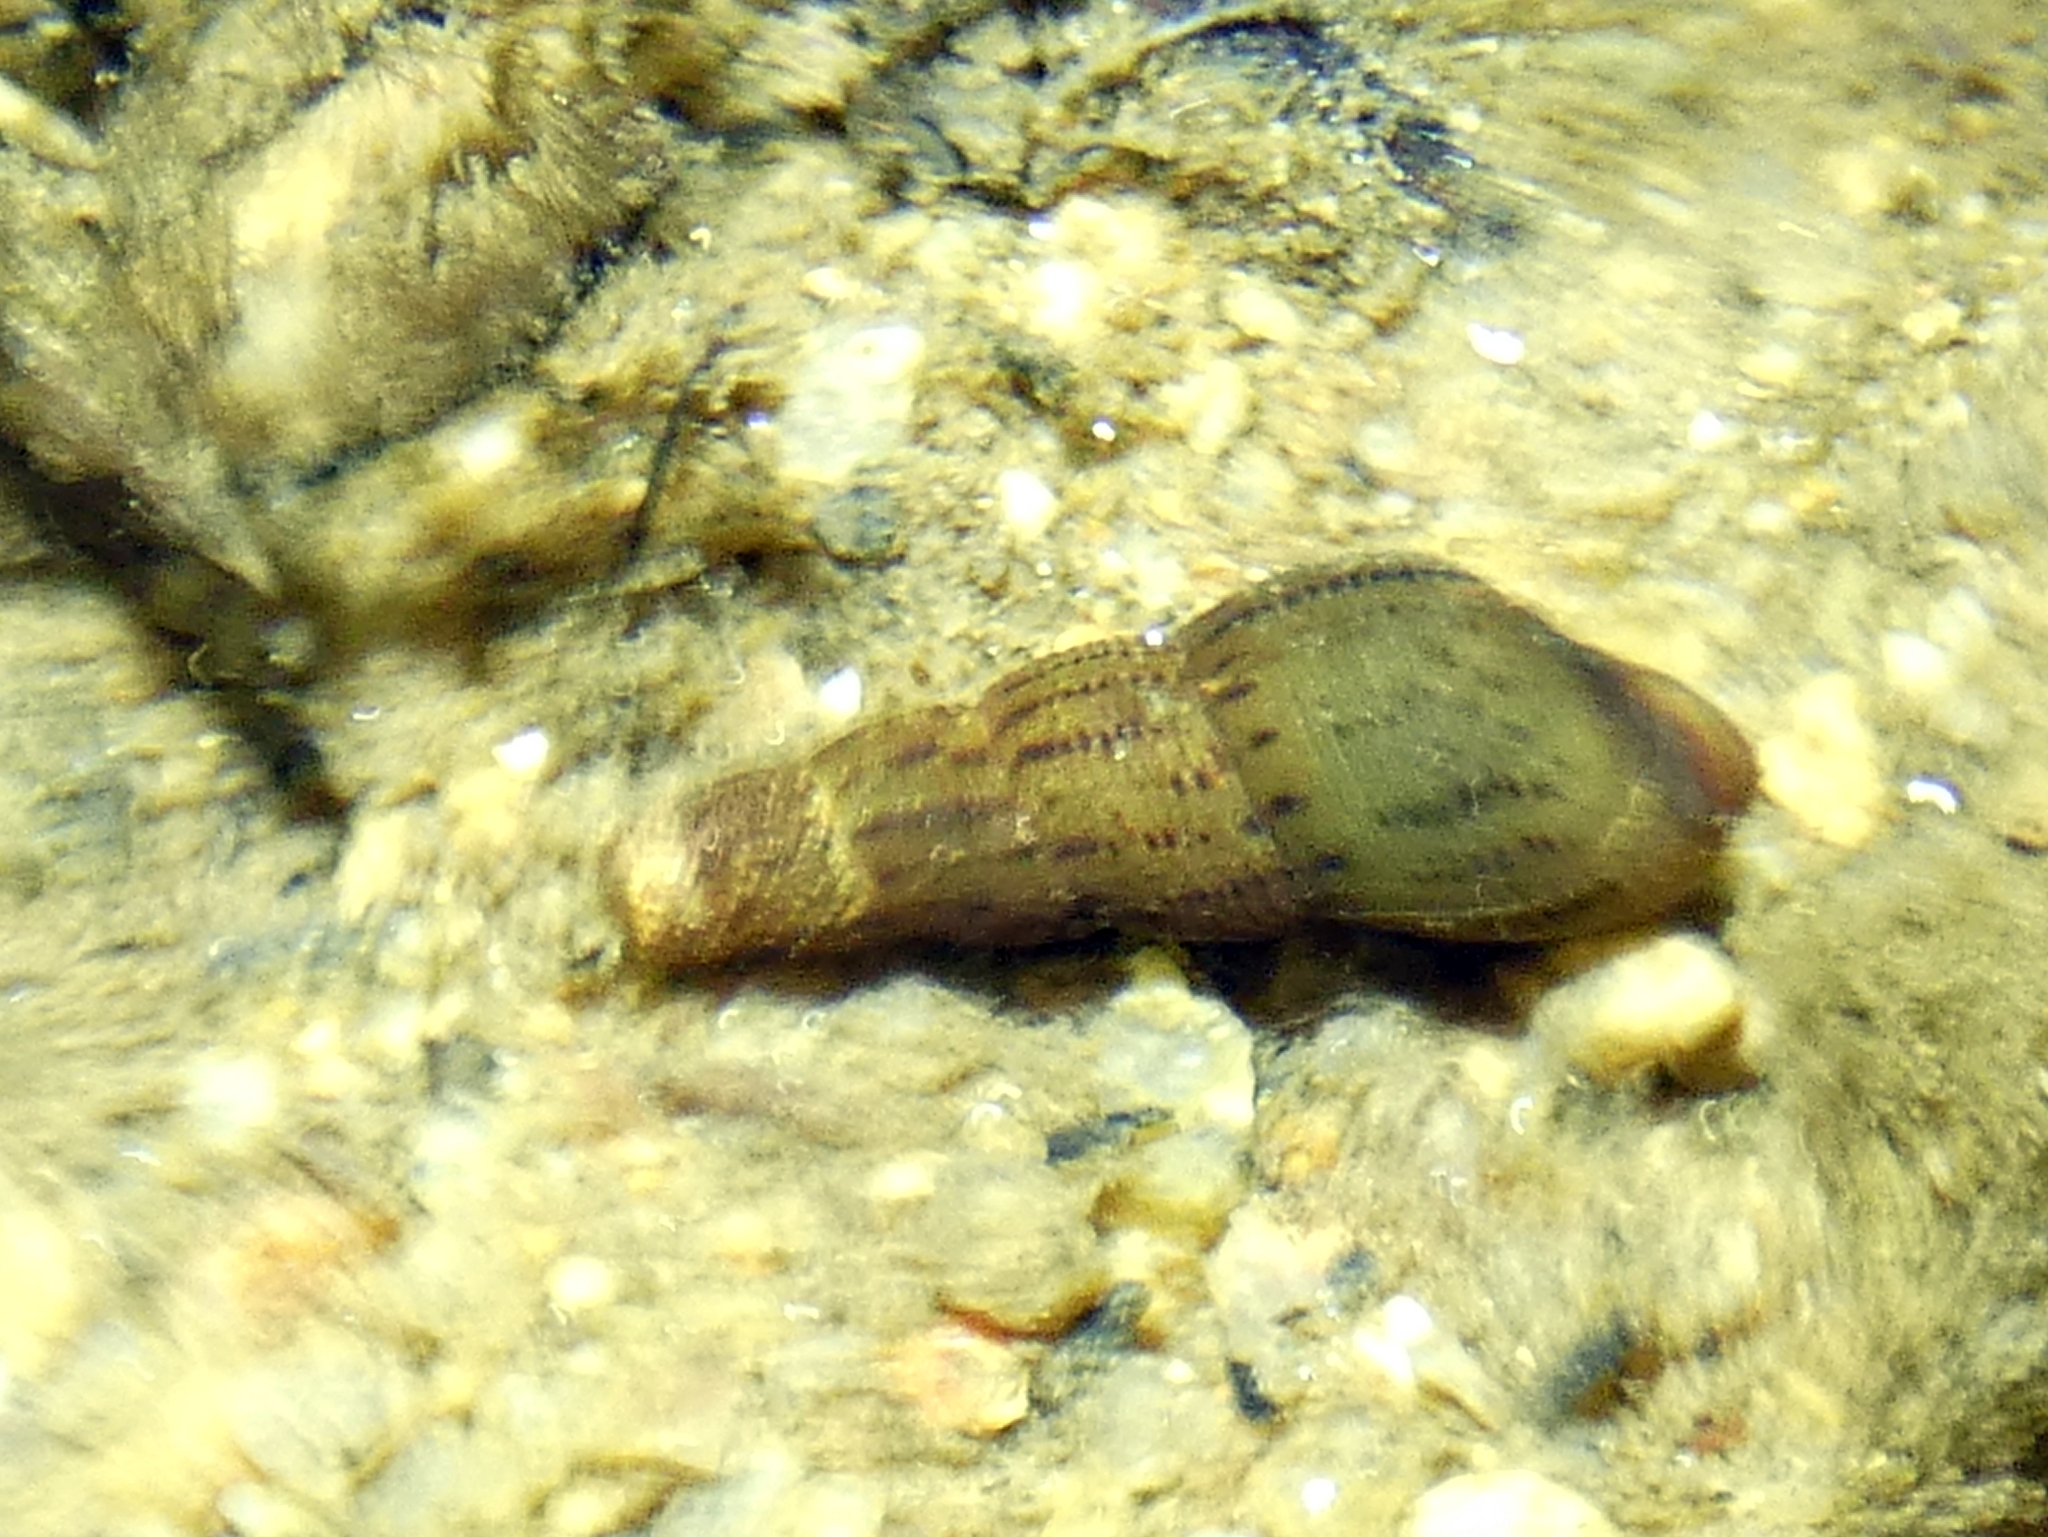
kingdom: Animalia
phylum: Mollusca
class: Gastropoda
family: Thiaridae
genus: Melanoides
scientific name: Melanoides tuberculata
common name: Red-rim melania
